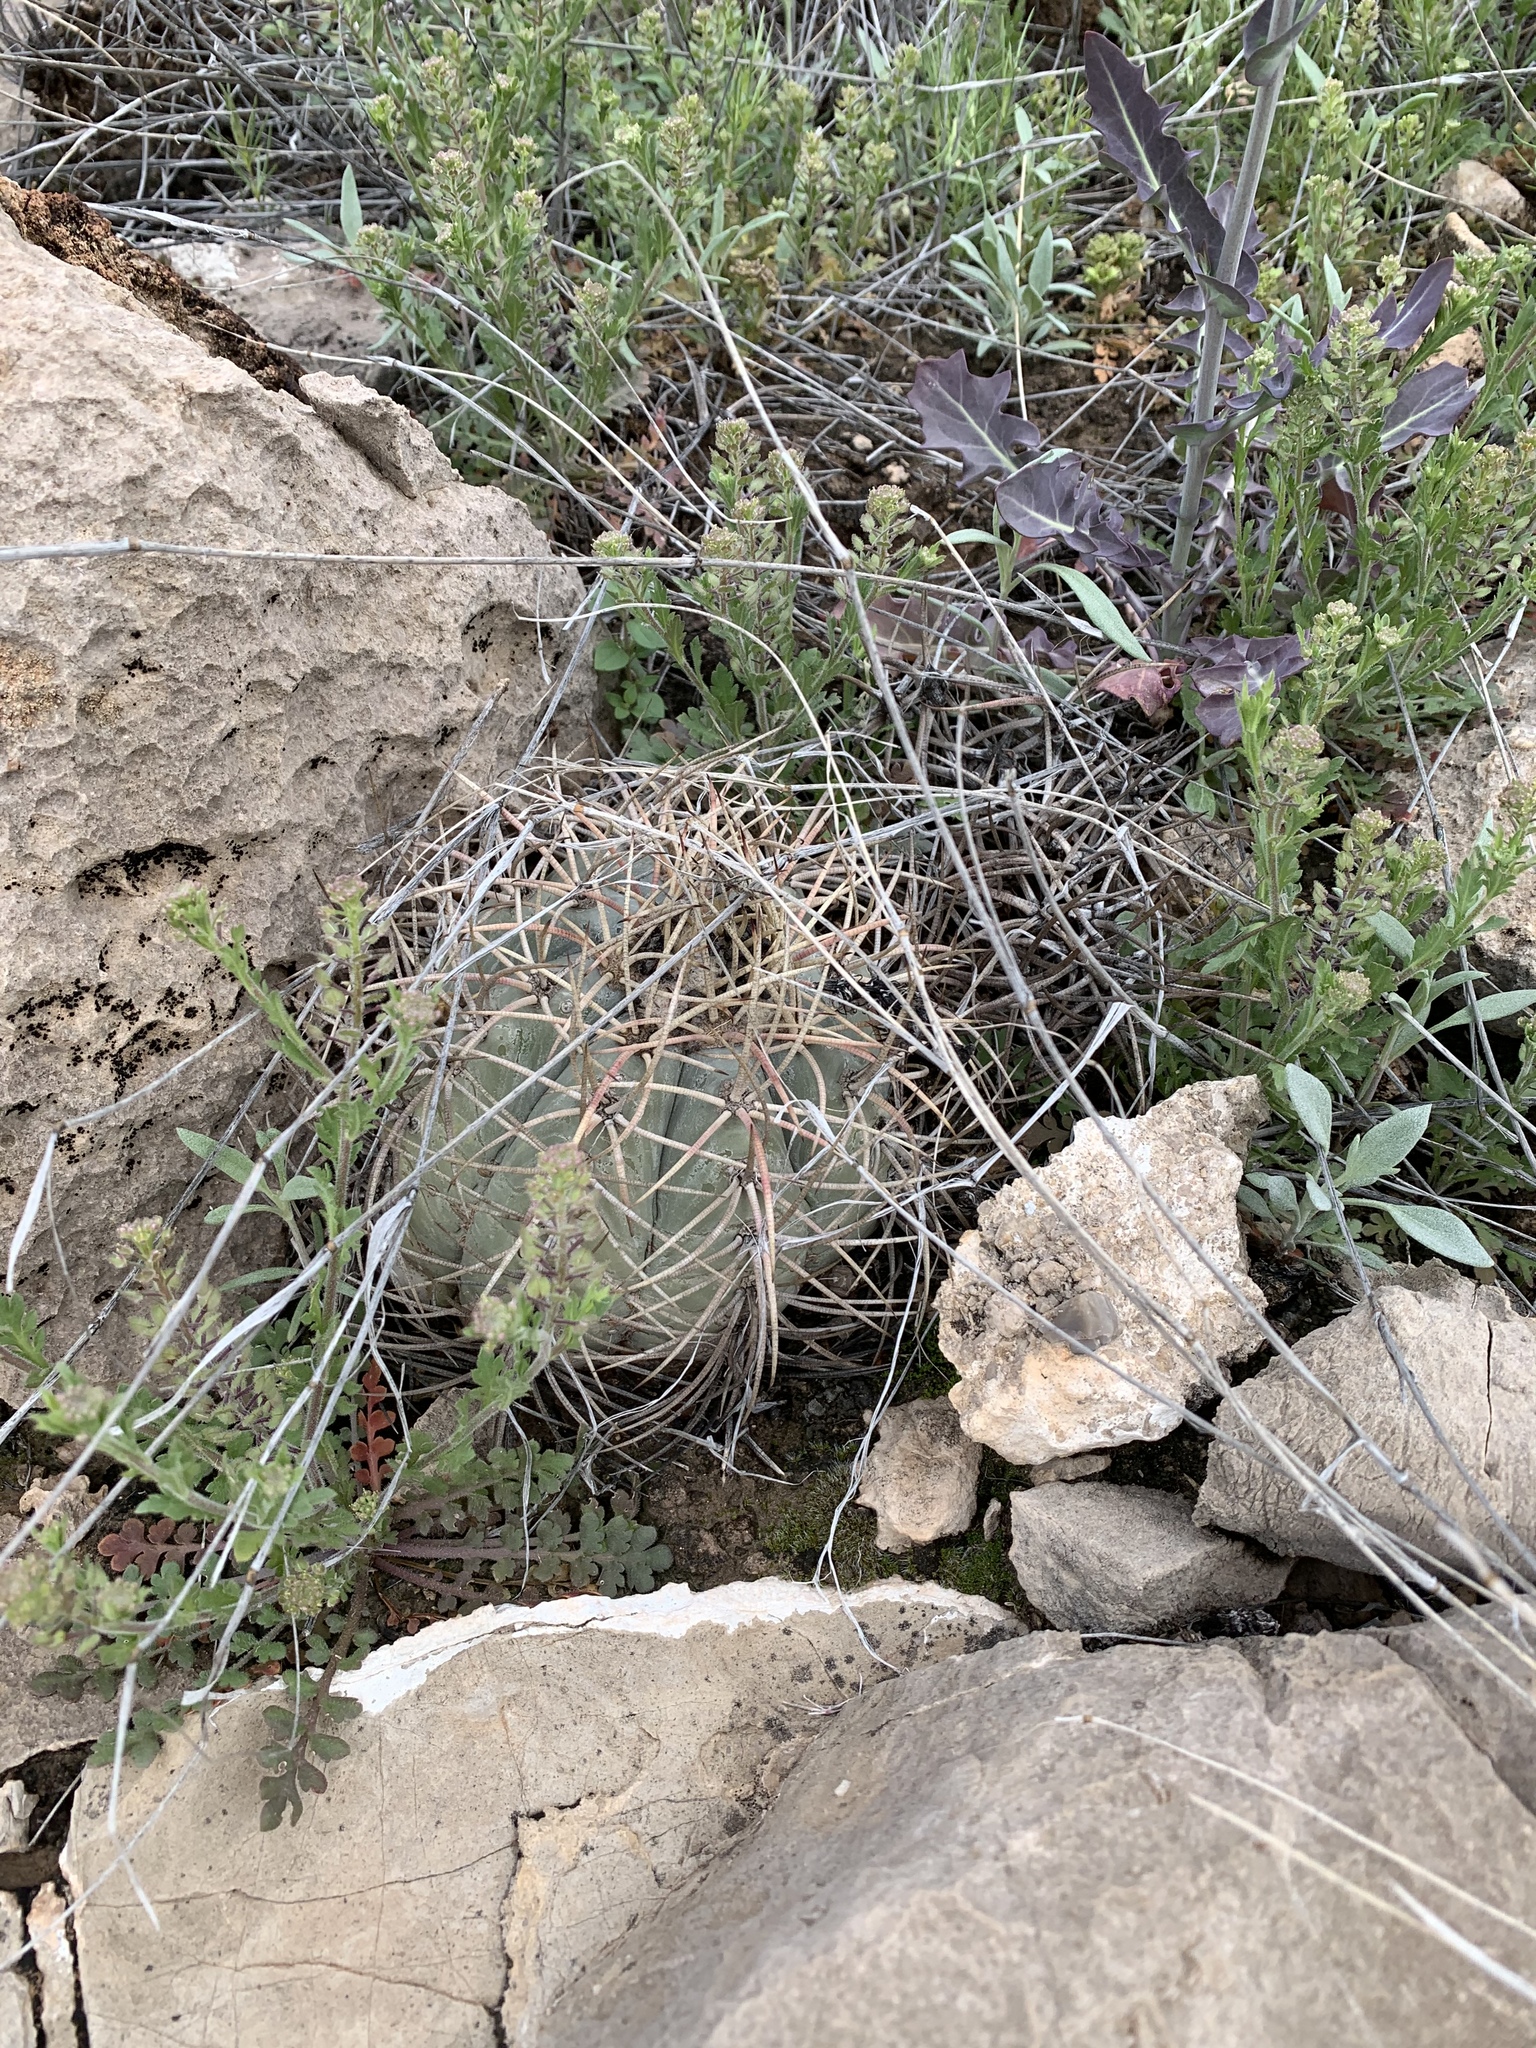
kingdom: Plantae
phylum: Tracheophyta
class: Magnoliopsida
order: Caryophyllales
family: Cactaceae
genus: Echinocactus
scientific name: Echinocactus horizonthalonius
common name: Devilshead
